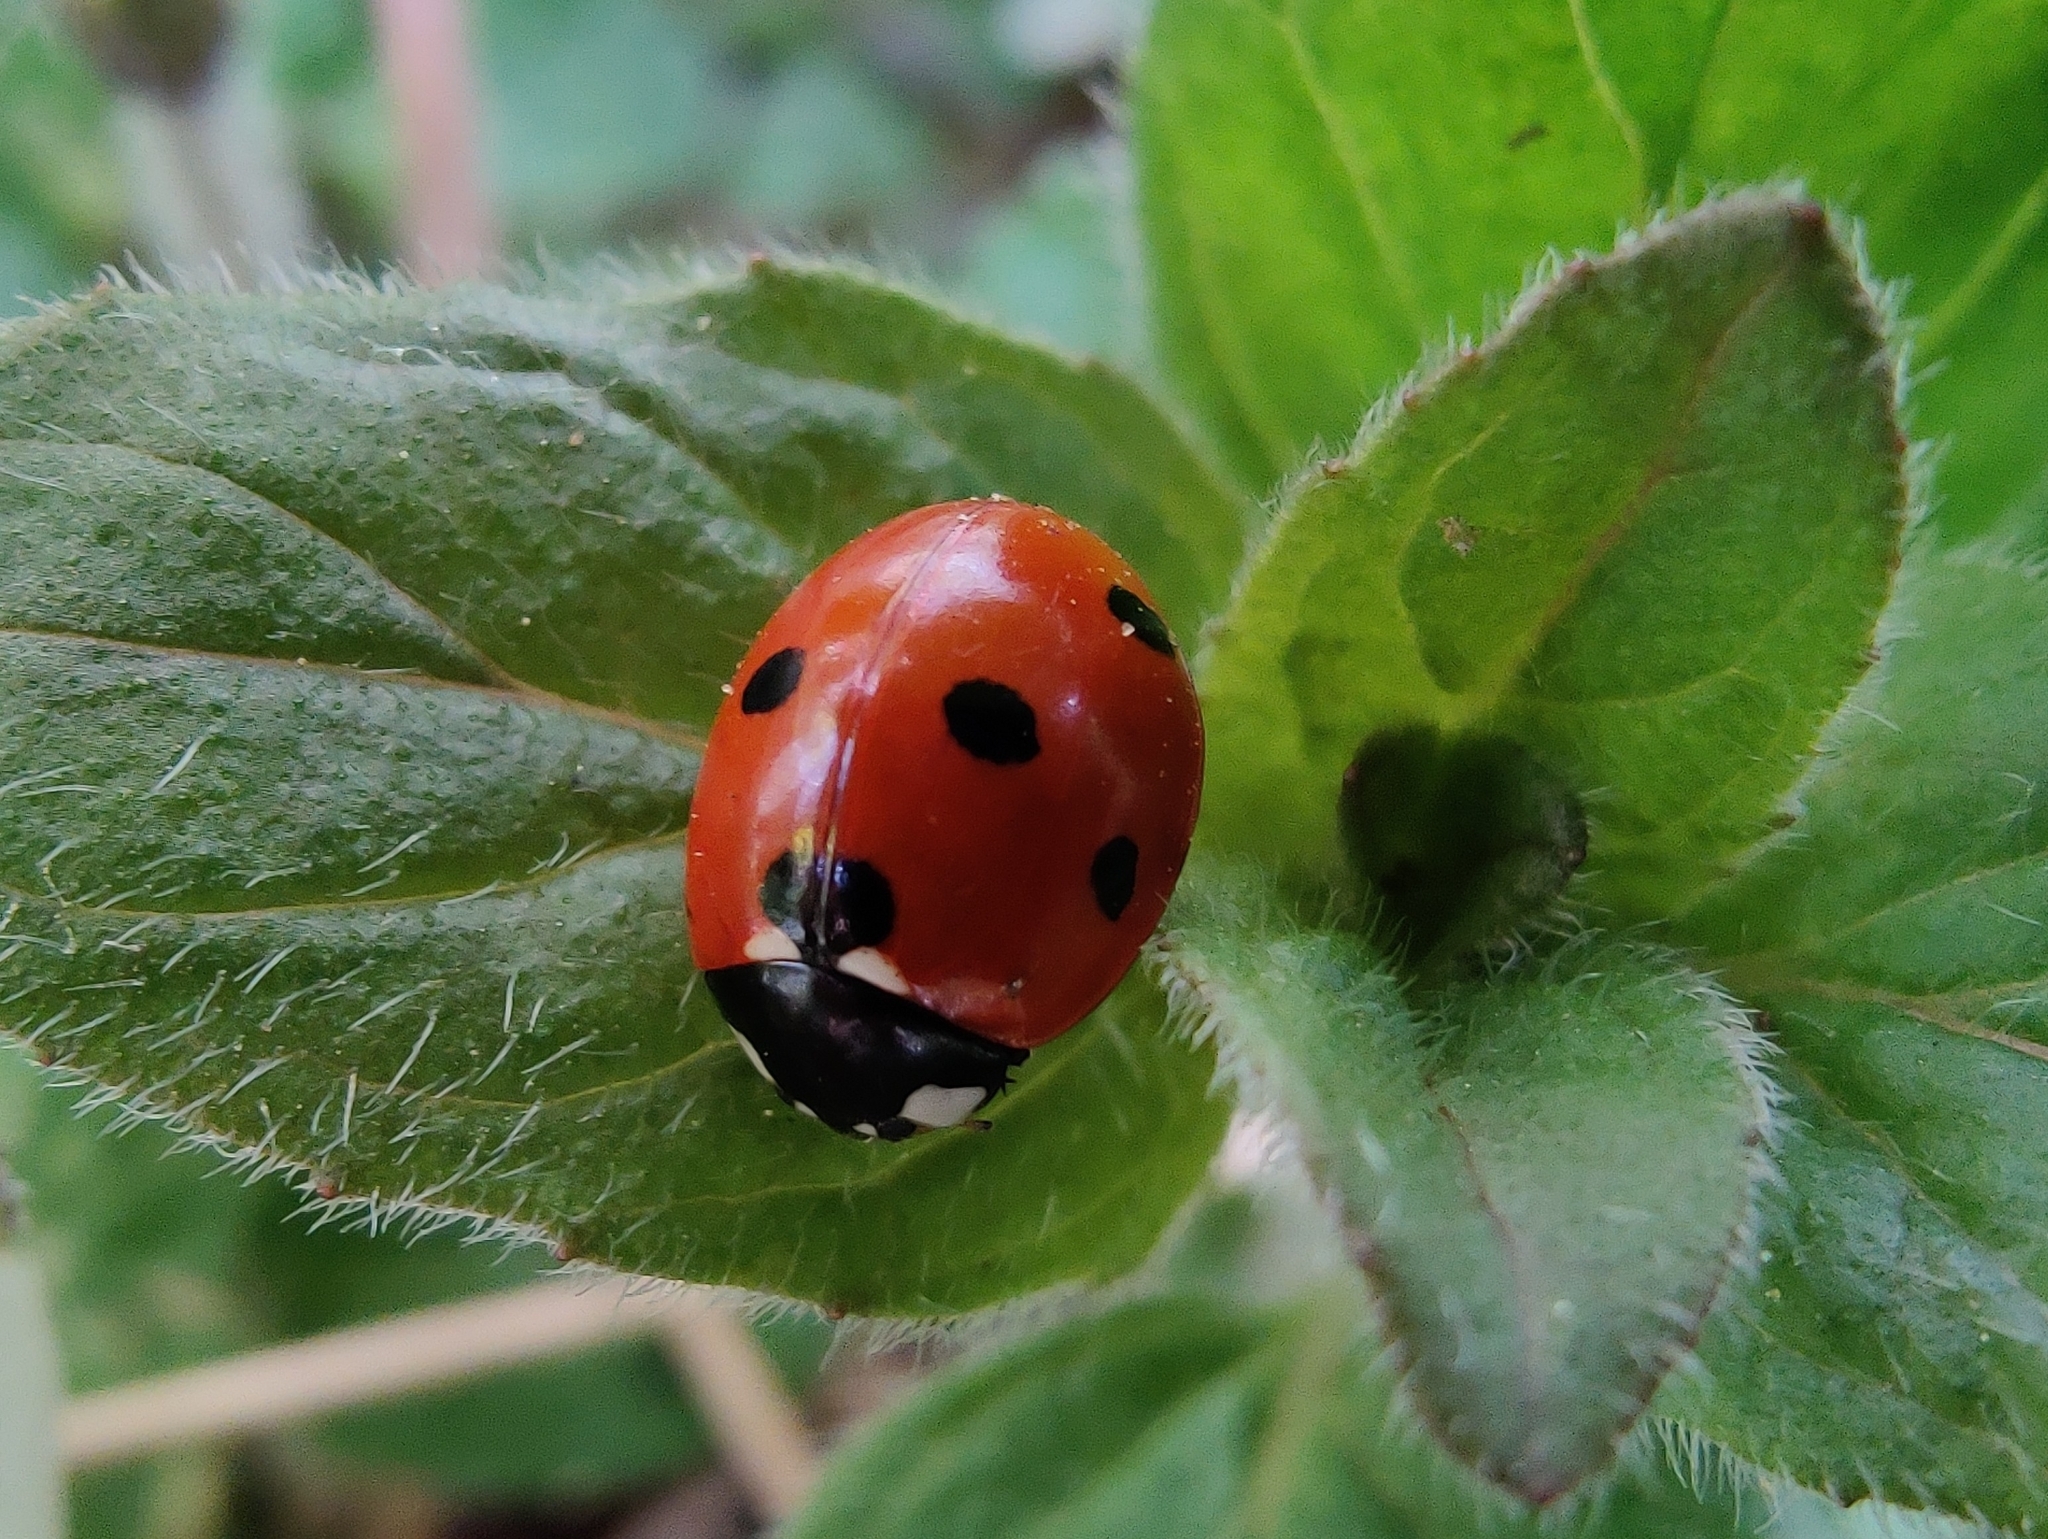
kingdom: Animalia
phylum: Arthropoda
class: Insecta
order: Coleoptera
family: Coccinellidae
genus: Coccinella
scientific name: Coccinella septempunctata
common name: Sevenspotted lady beetle
